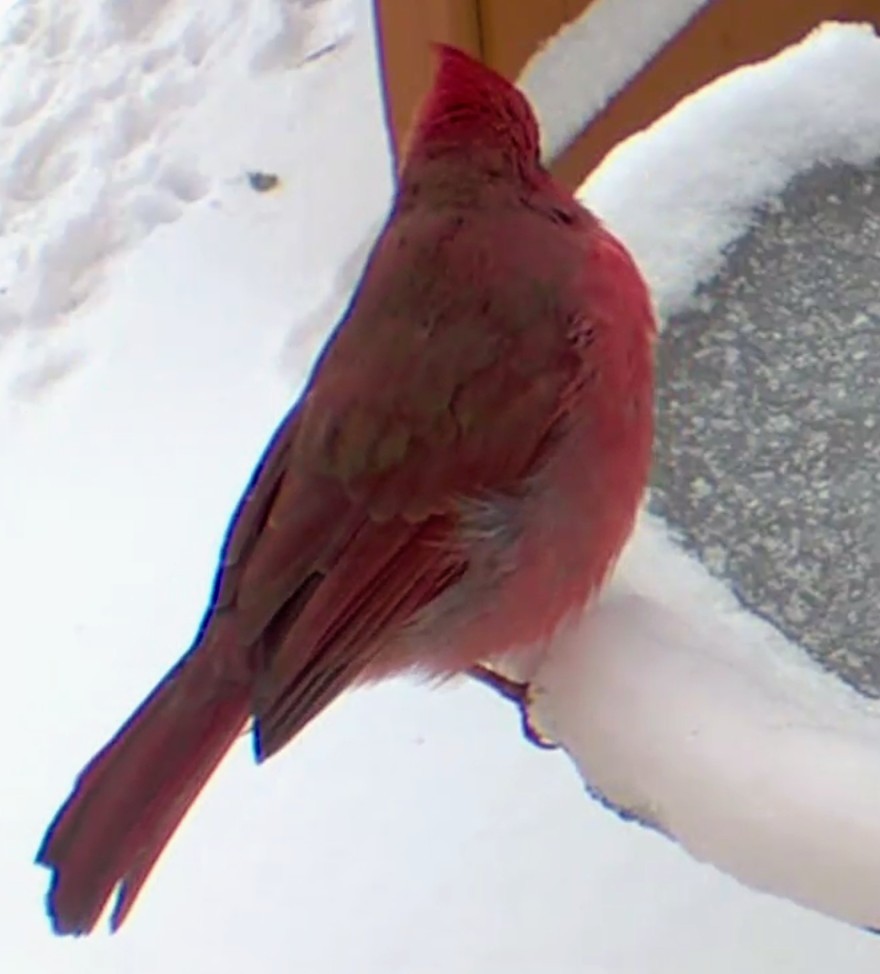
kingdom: Animalia
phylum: Chordata
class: Aves
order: Passeriformes
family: Cardinalidae
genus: Cardinalis
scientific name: Cardinalis cardinalis
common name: Northern cardinal
